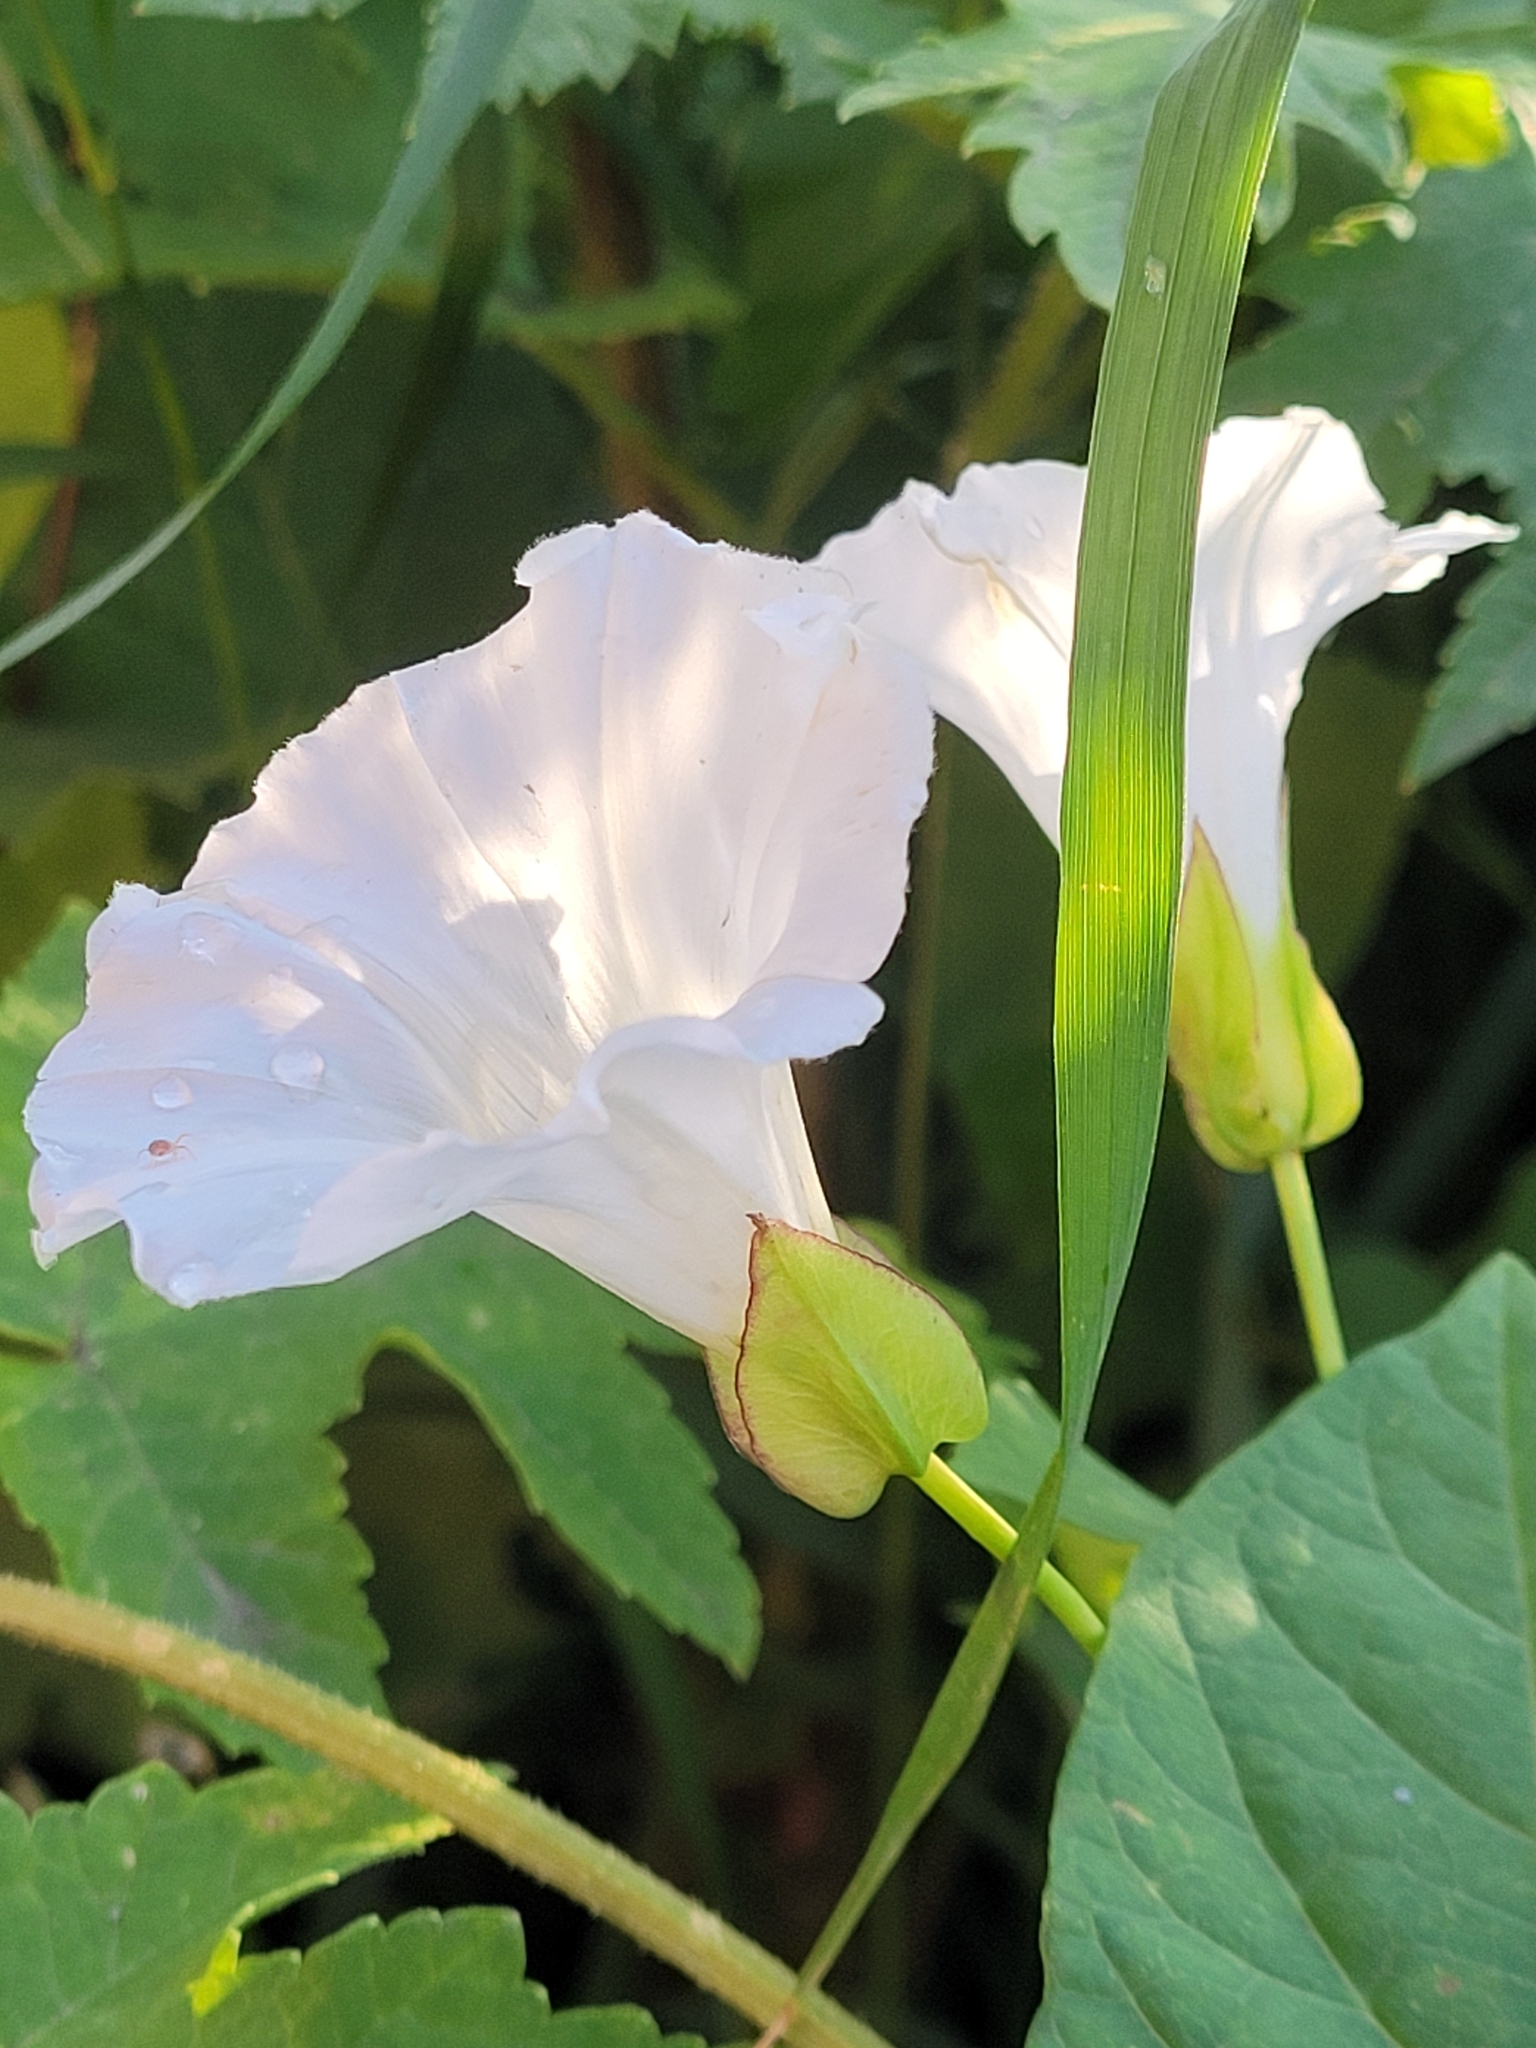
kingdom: Plantae
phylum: Tracheophyta
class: Magnoliopsida
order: Solanales
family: Convolvulaceae
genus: Calystegia
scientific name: Calystegia sepium
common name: Hedge bindweed
